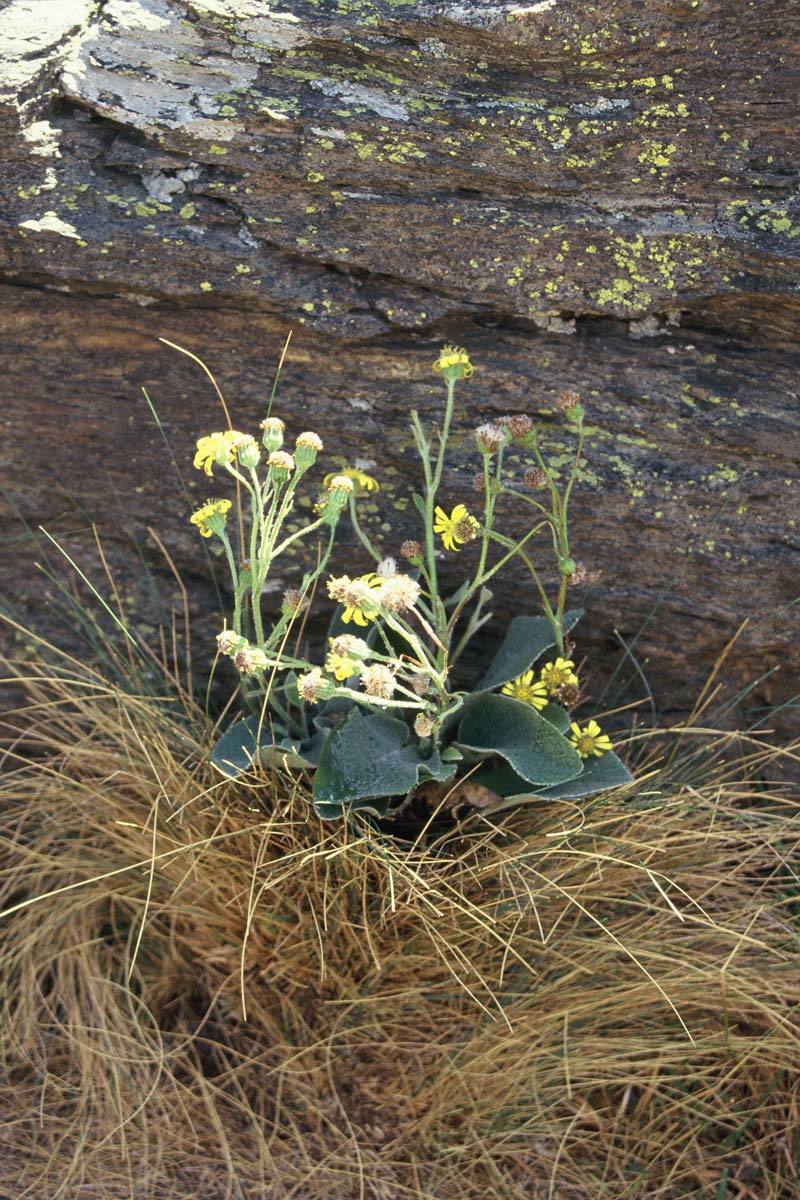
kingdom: Plantae
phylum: Tracheophyta
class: Magnoliopsida
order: Asterales
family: Asteraceae
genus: Brachyglottis
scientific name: Brachyglottis southlandica
